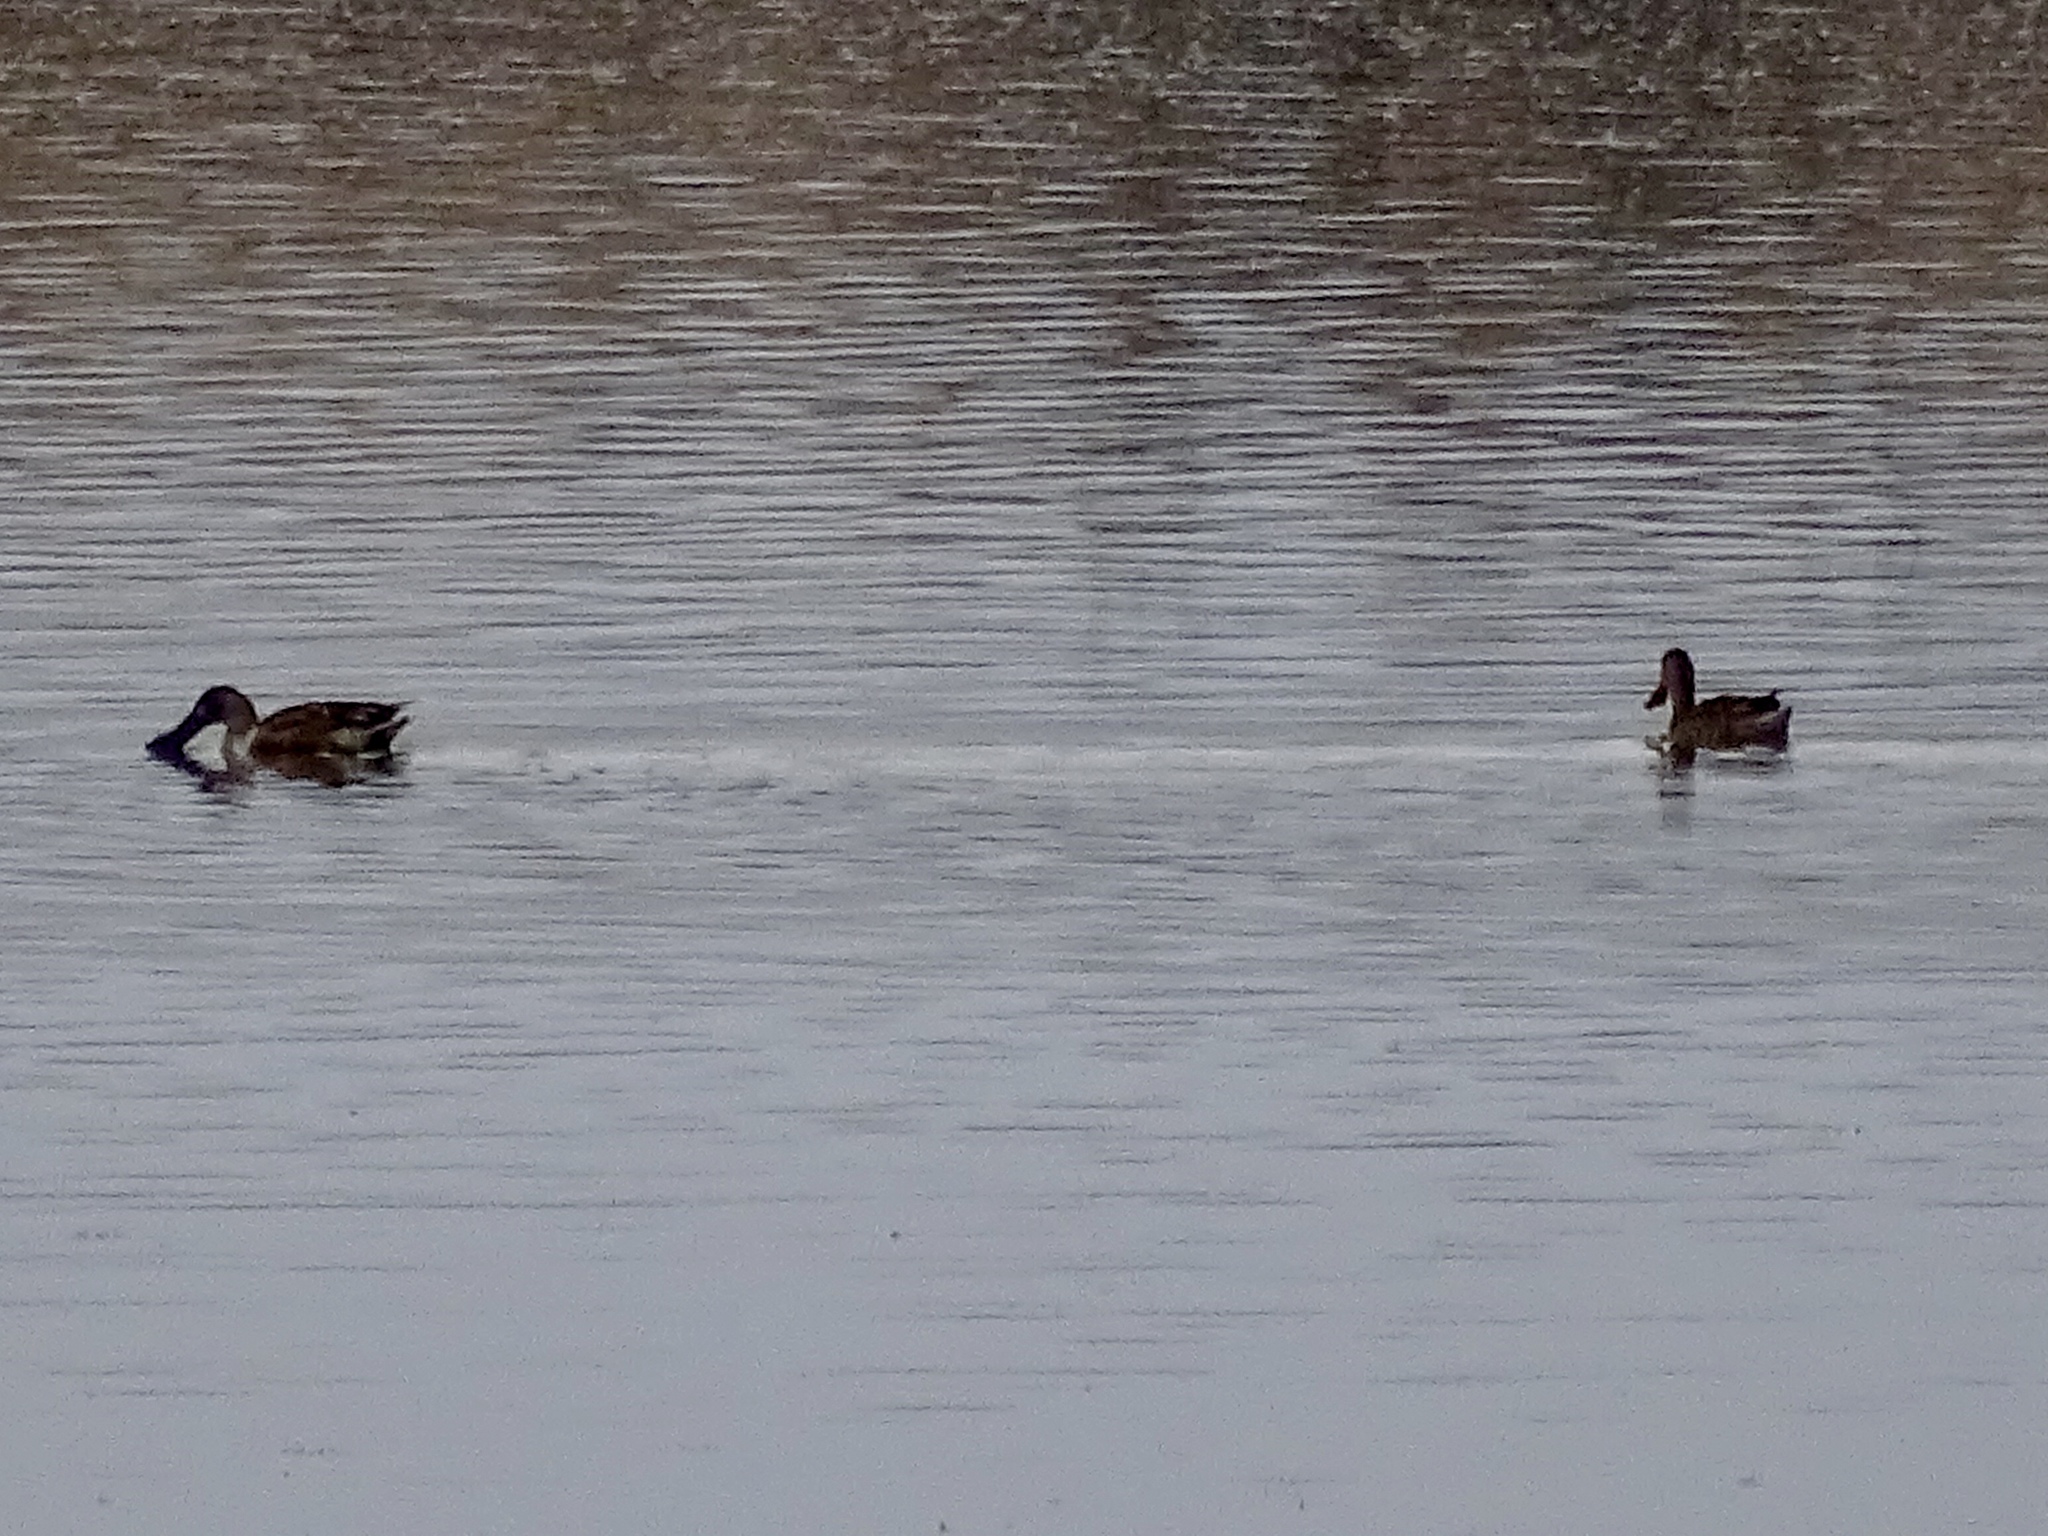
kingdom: Animalia
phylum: Chordata
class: Aves
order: Anseriformes
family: Anatidae
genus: Spatula
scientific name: Spatula clypeata
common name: Northern shoveler
